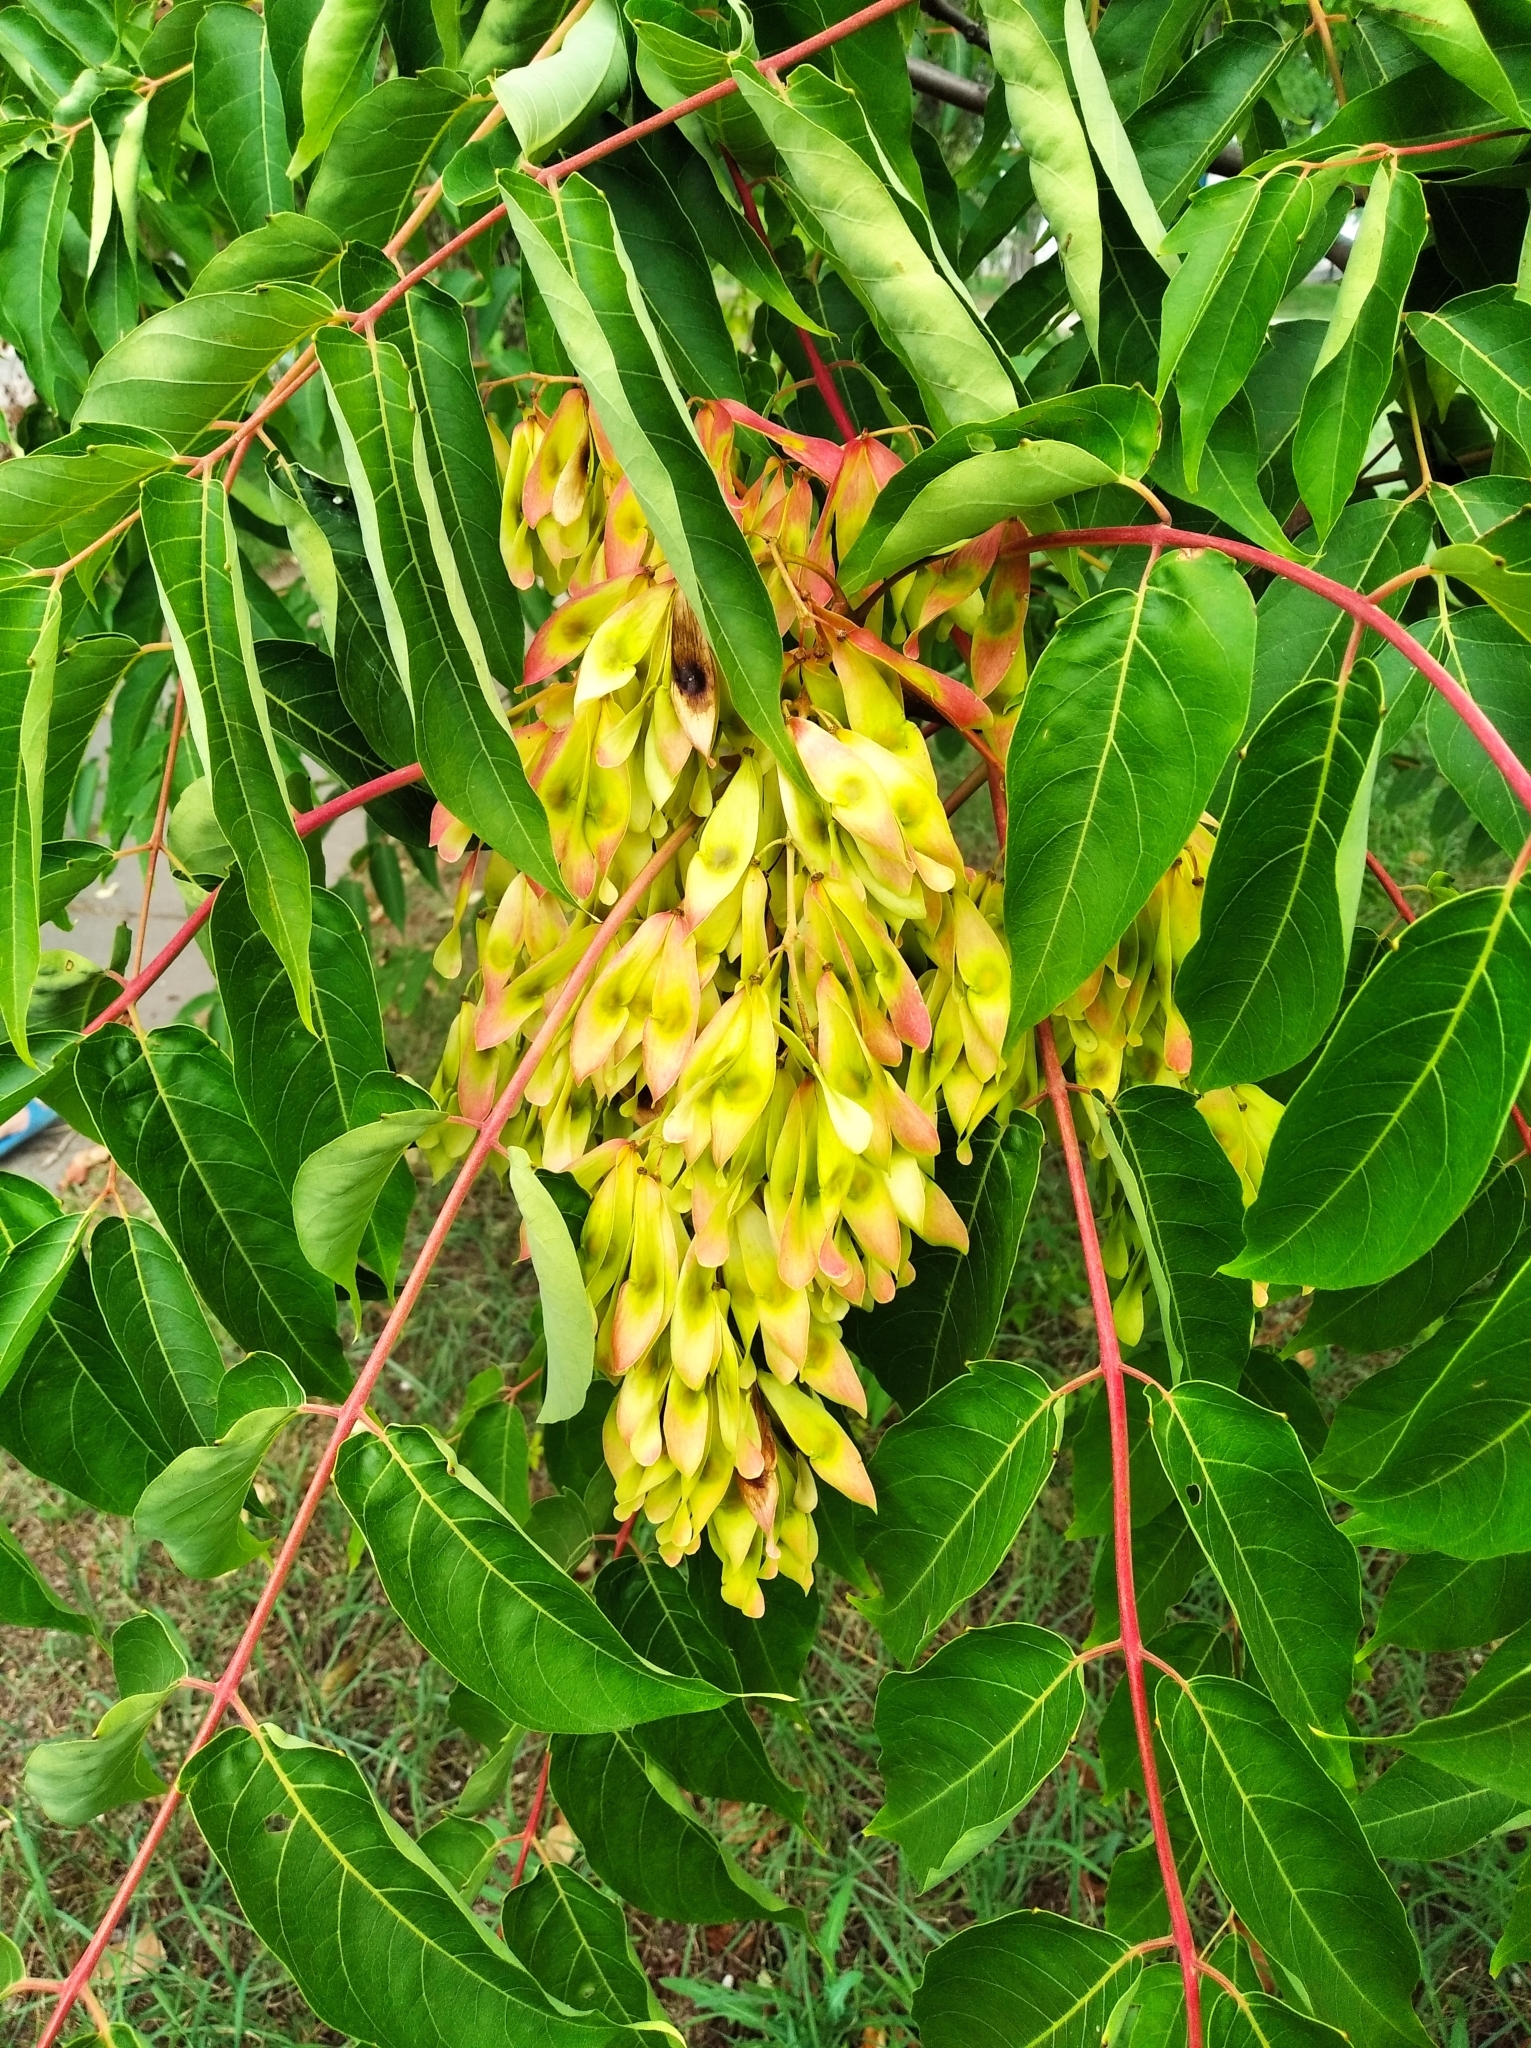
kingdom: Plantae
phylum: Tracheophyta
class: Magnoliopsida
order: Sapindales
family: Simaroubaceae
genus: Ailanthus
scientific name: Ailanthus altissima
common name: Tree-of-heaven
